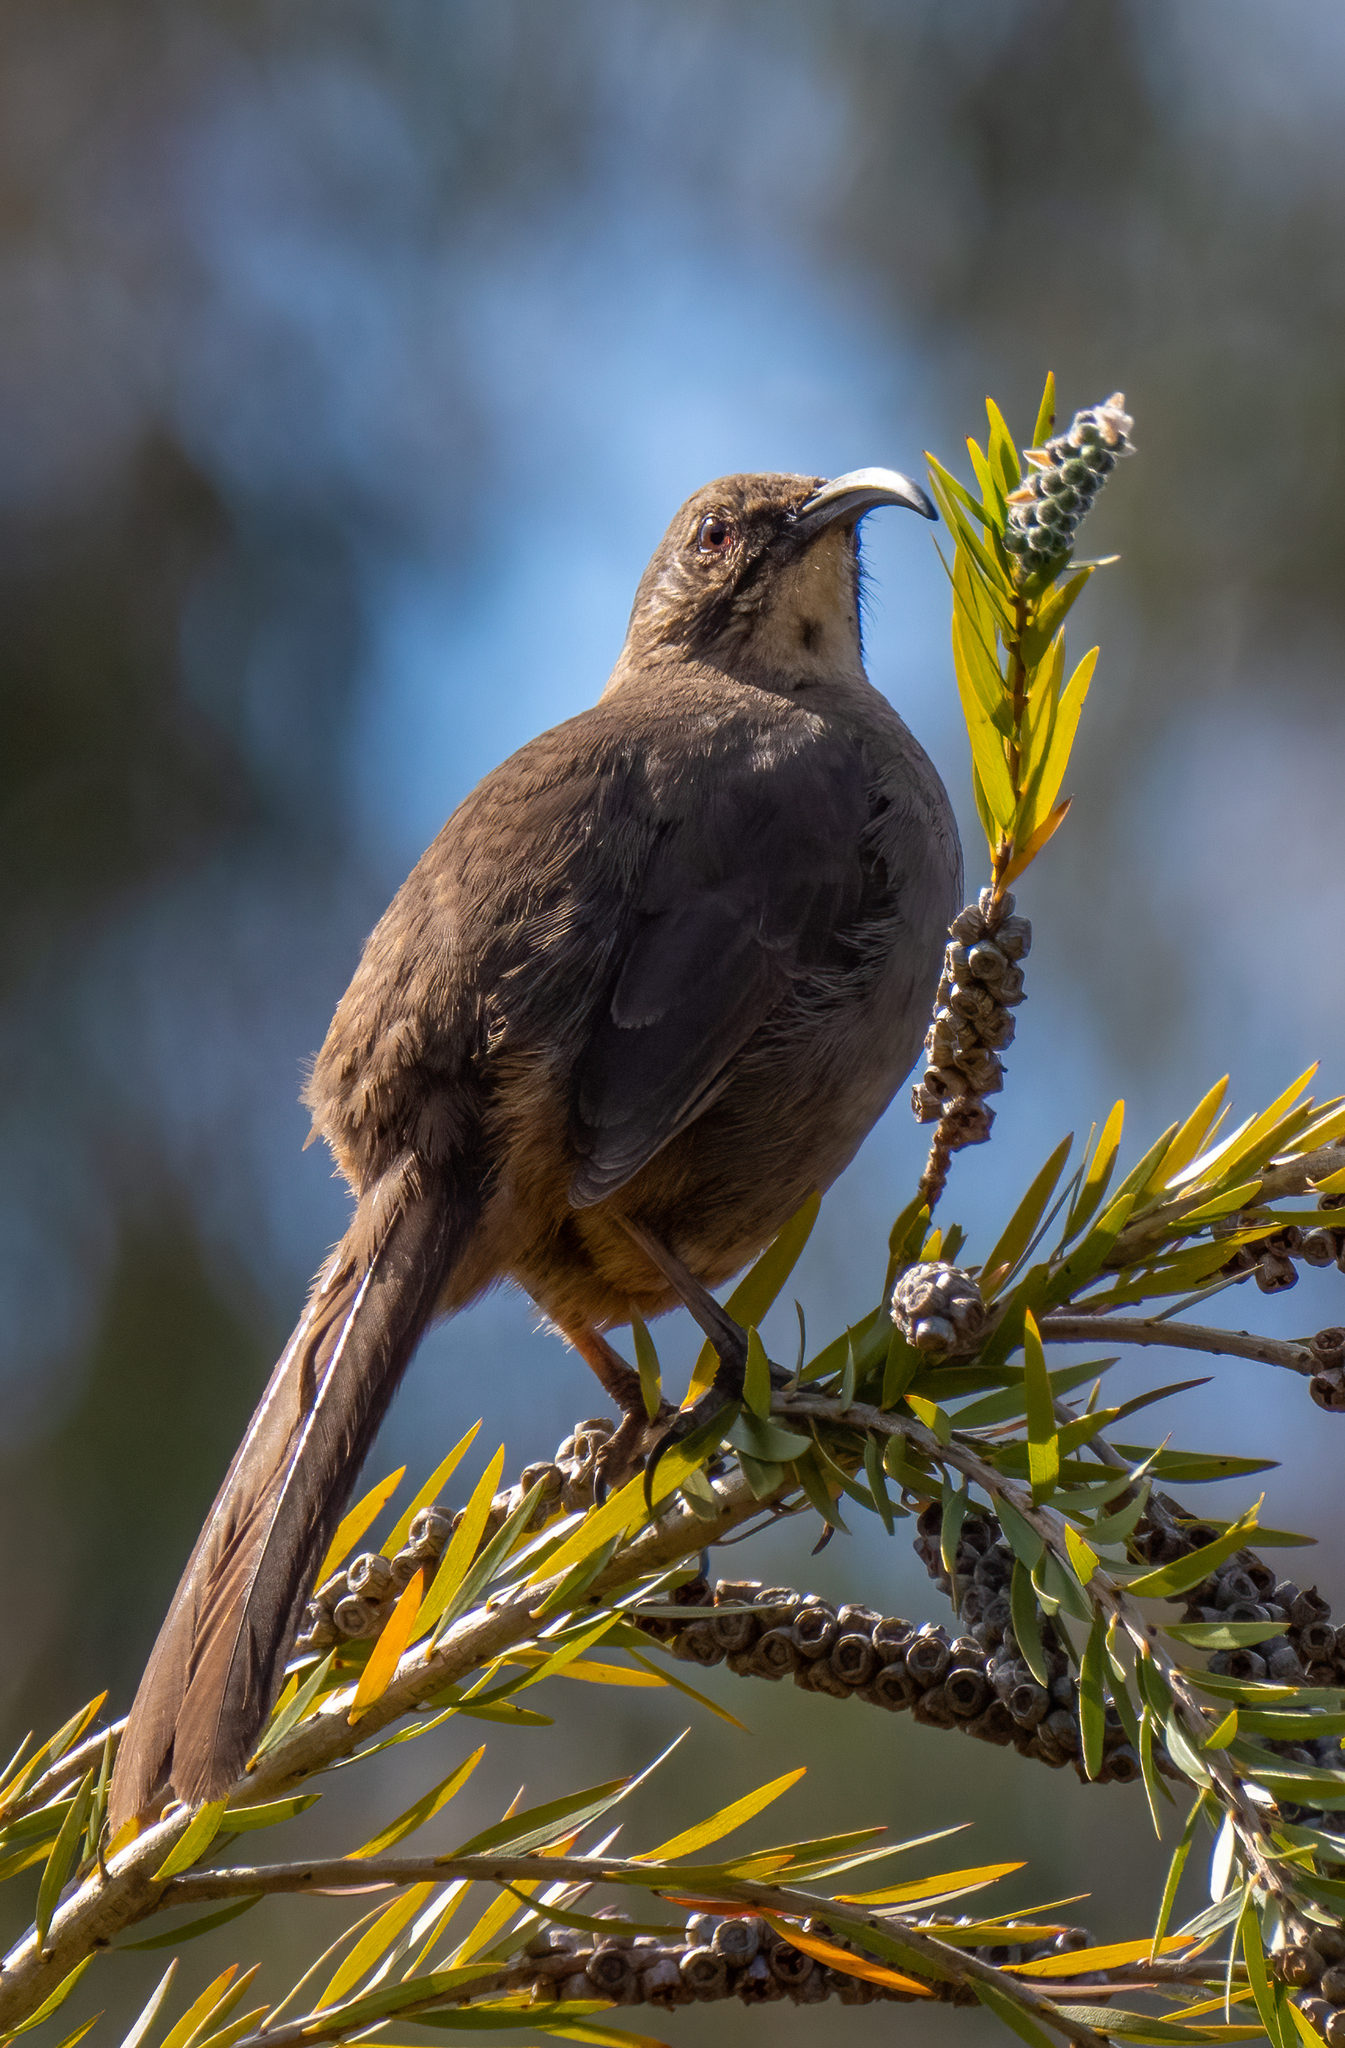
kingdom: Animalia
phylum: Chordata
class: Aves
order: Passeriformes
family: Mimidae
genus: Toxostoma
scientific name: Toxostoma redivivum
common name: California thrasher
